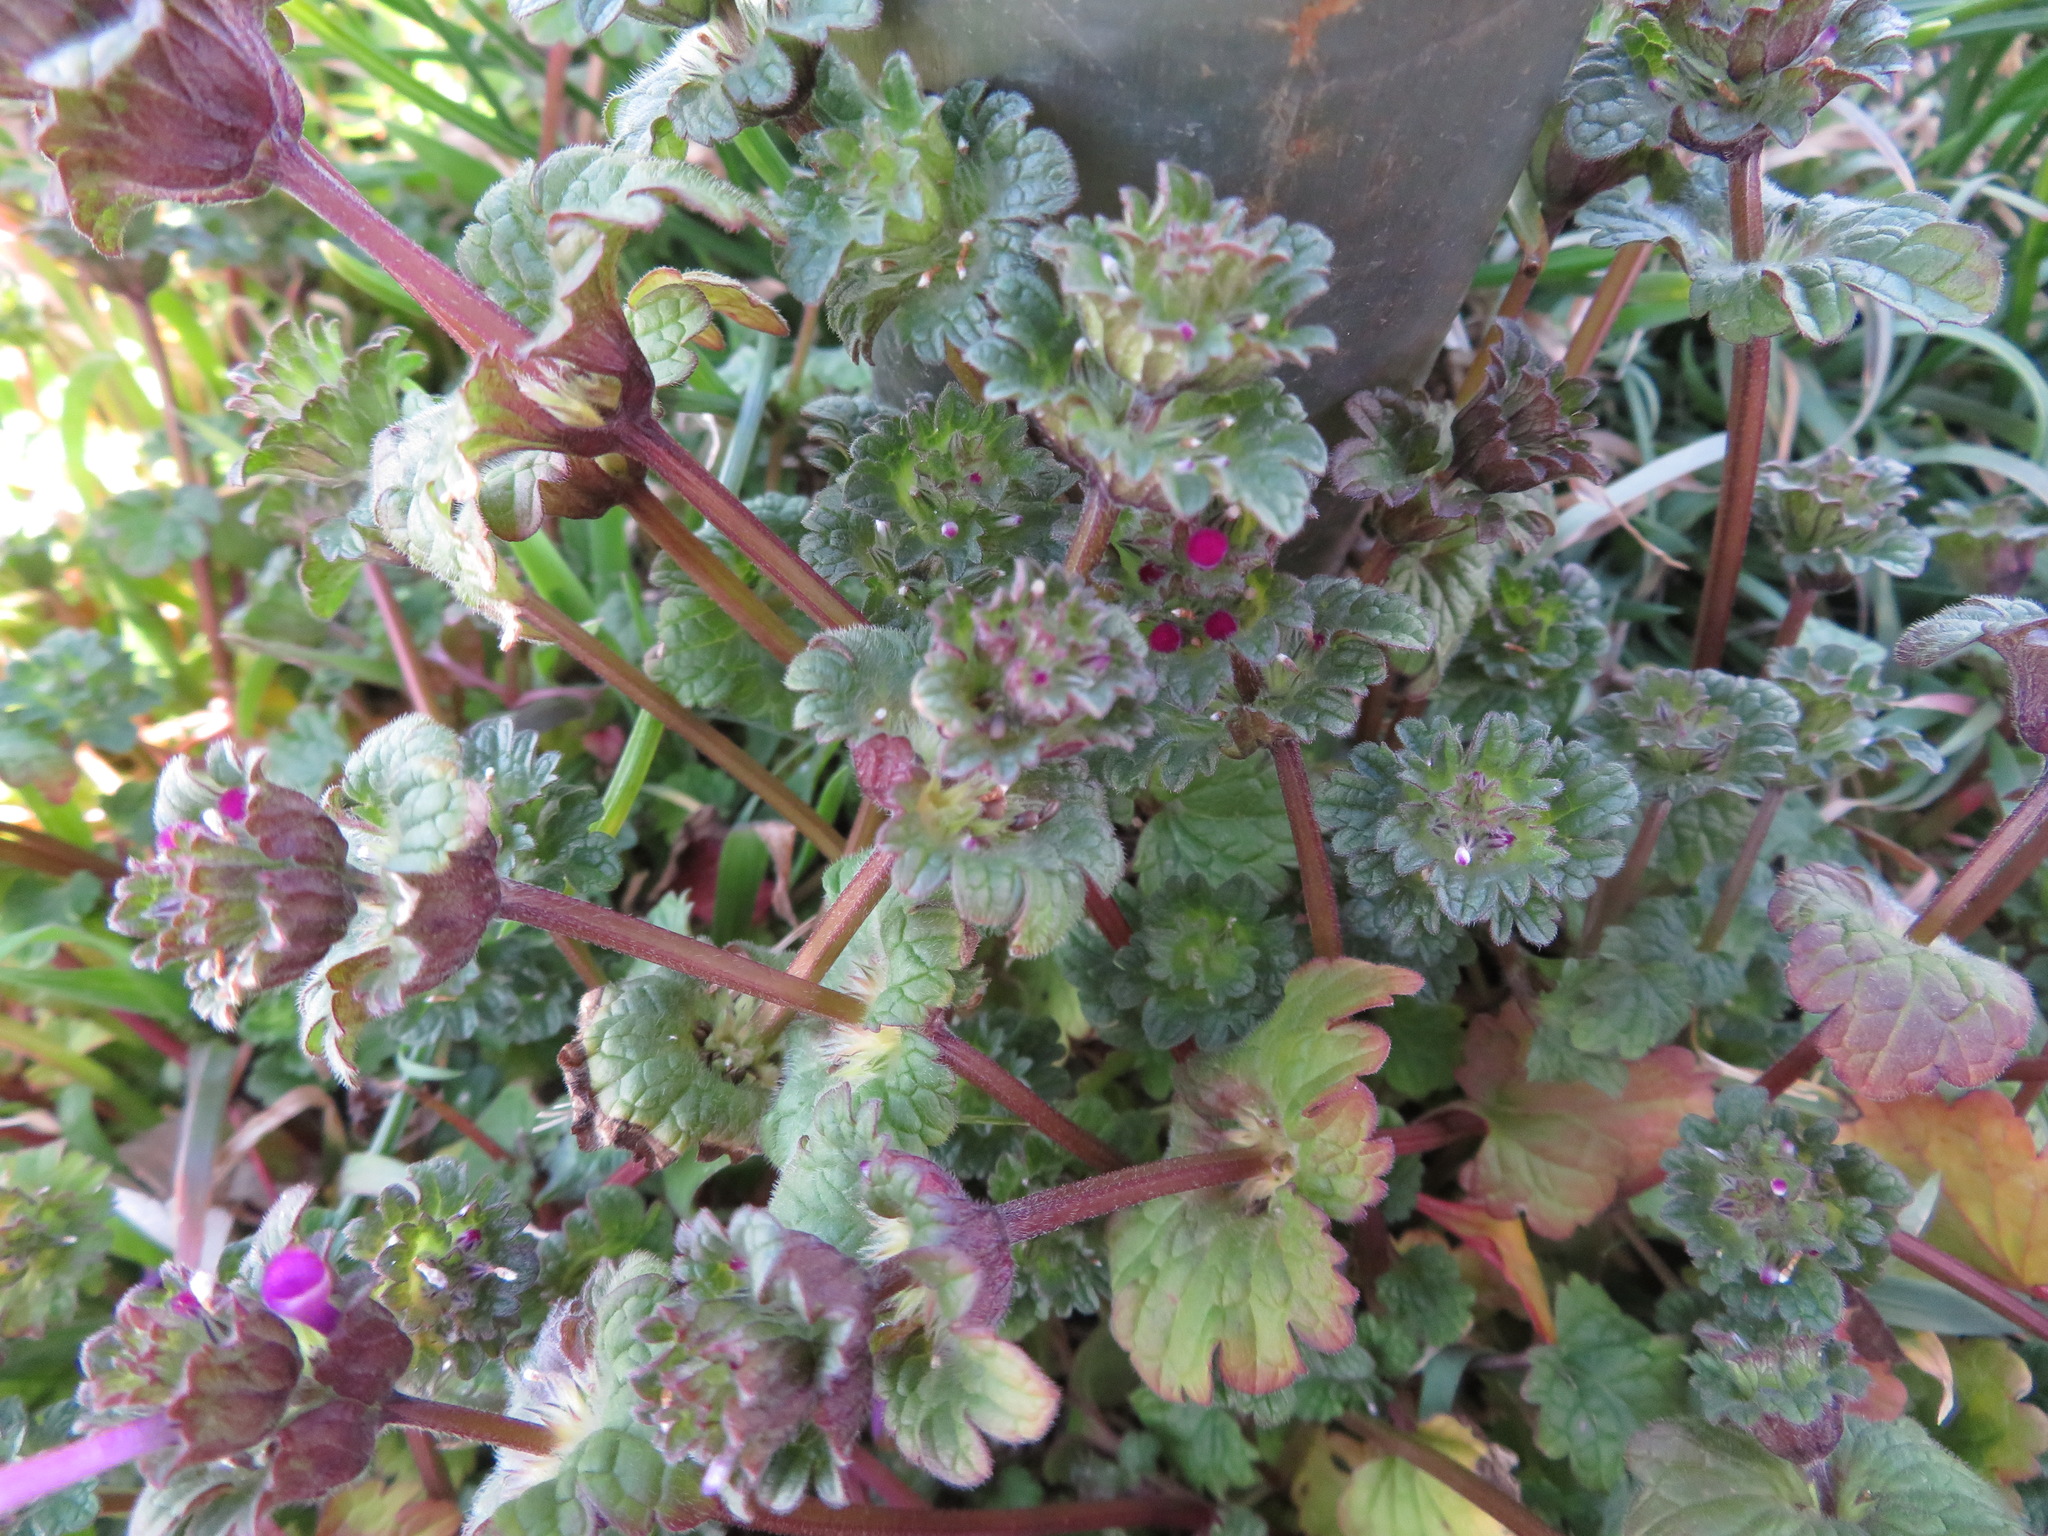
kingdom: Plantae
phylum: Tracheophyta
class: Magnoliopsida
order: Lamiales
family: Lamiaceae
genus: Lamium
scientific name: Lamium amplexicaule
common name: Henbit dead-nettle
